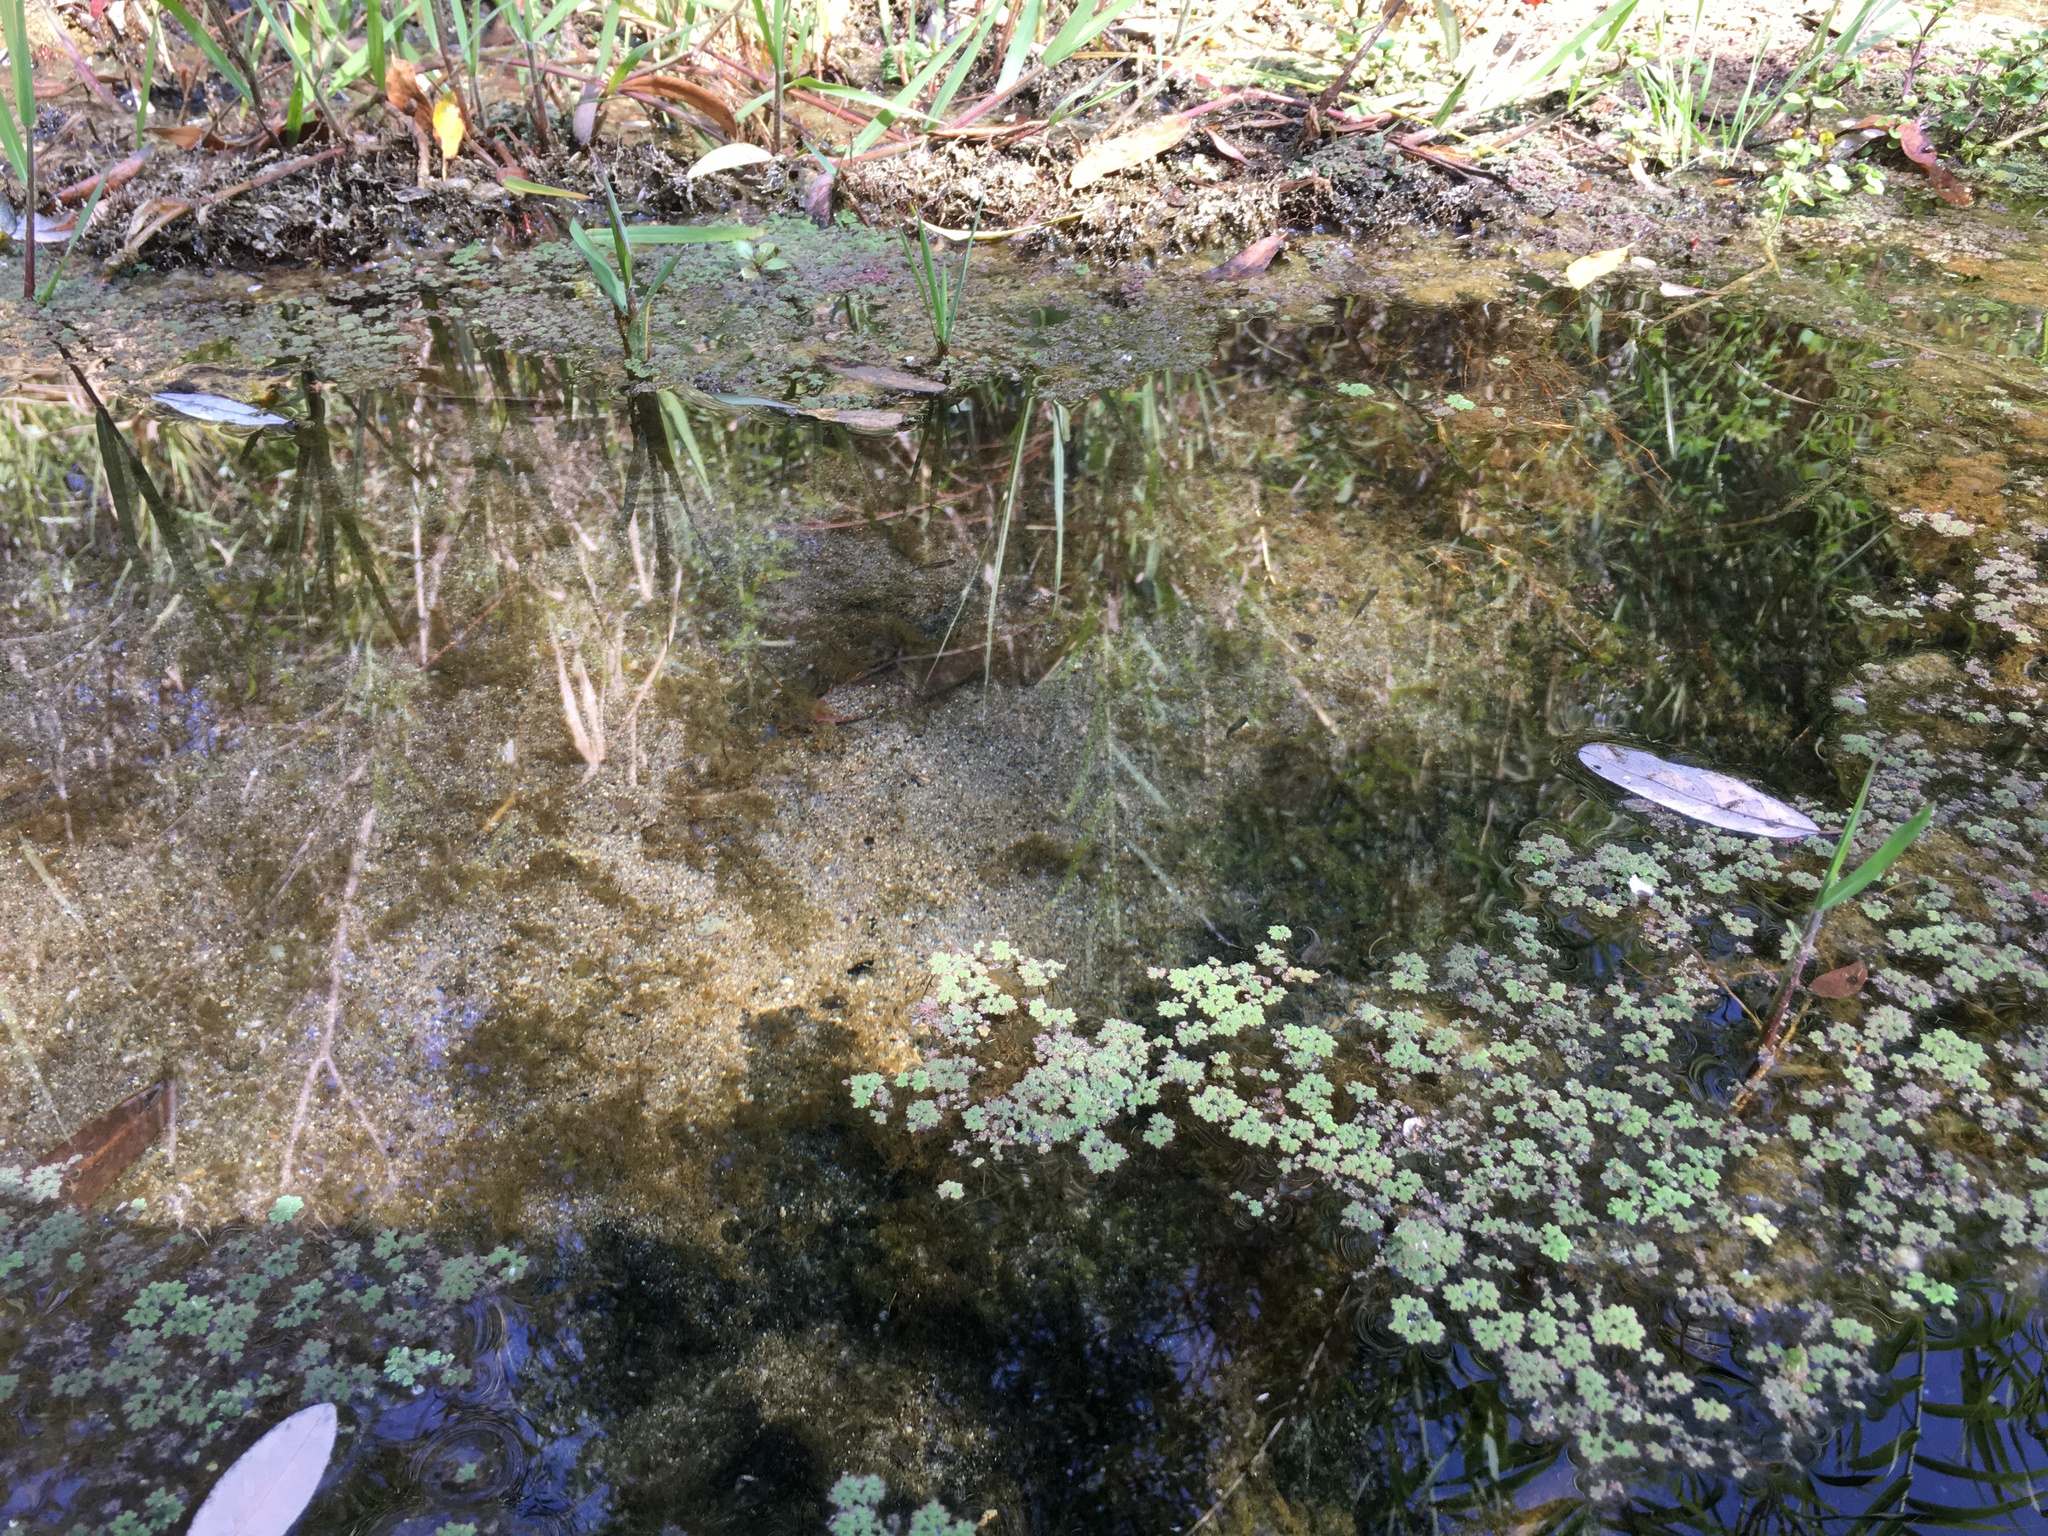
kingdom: Plantae
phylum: Tracheophyta
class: Polypodiopsida
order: Salviniales
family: Salviniaceae
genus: Azolla
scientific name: Azolla filiculoides
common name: Water fern
